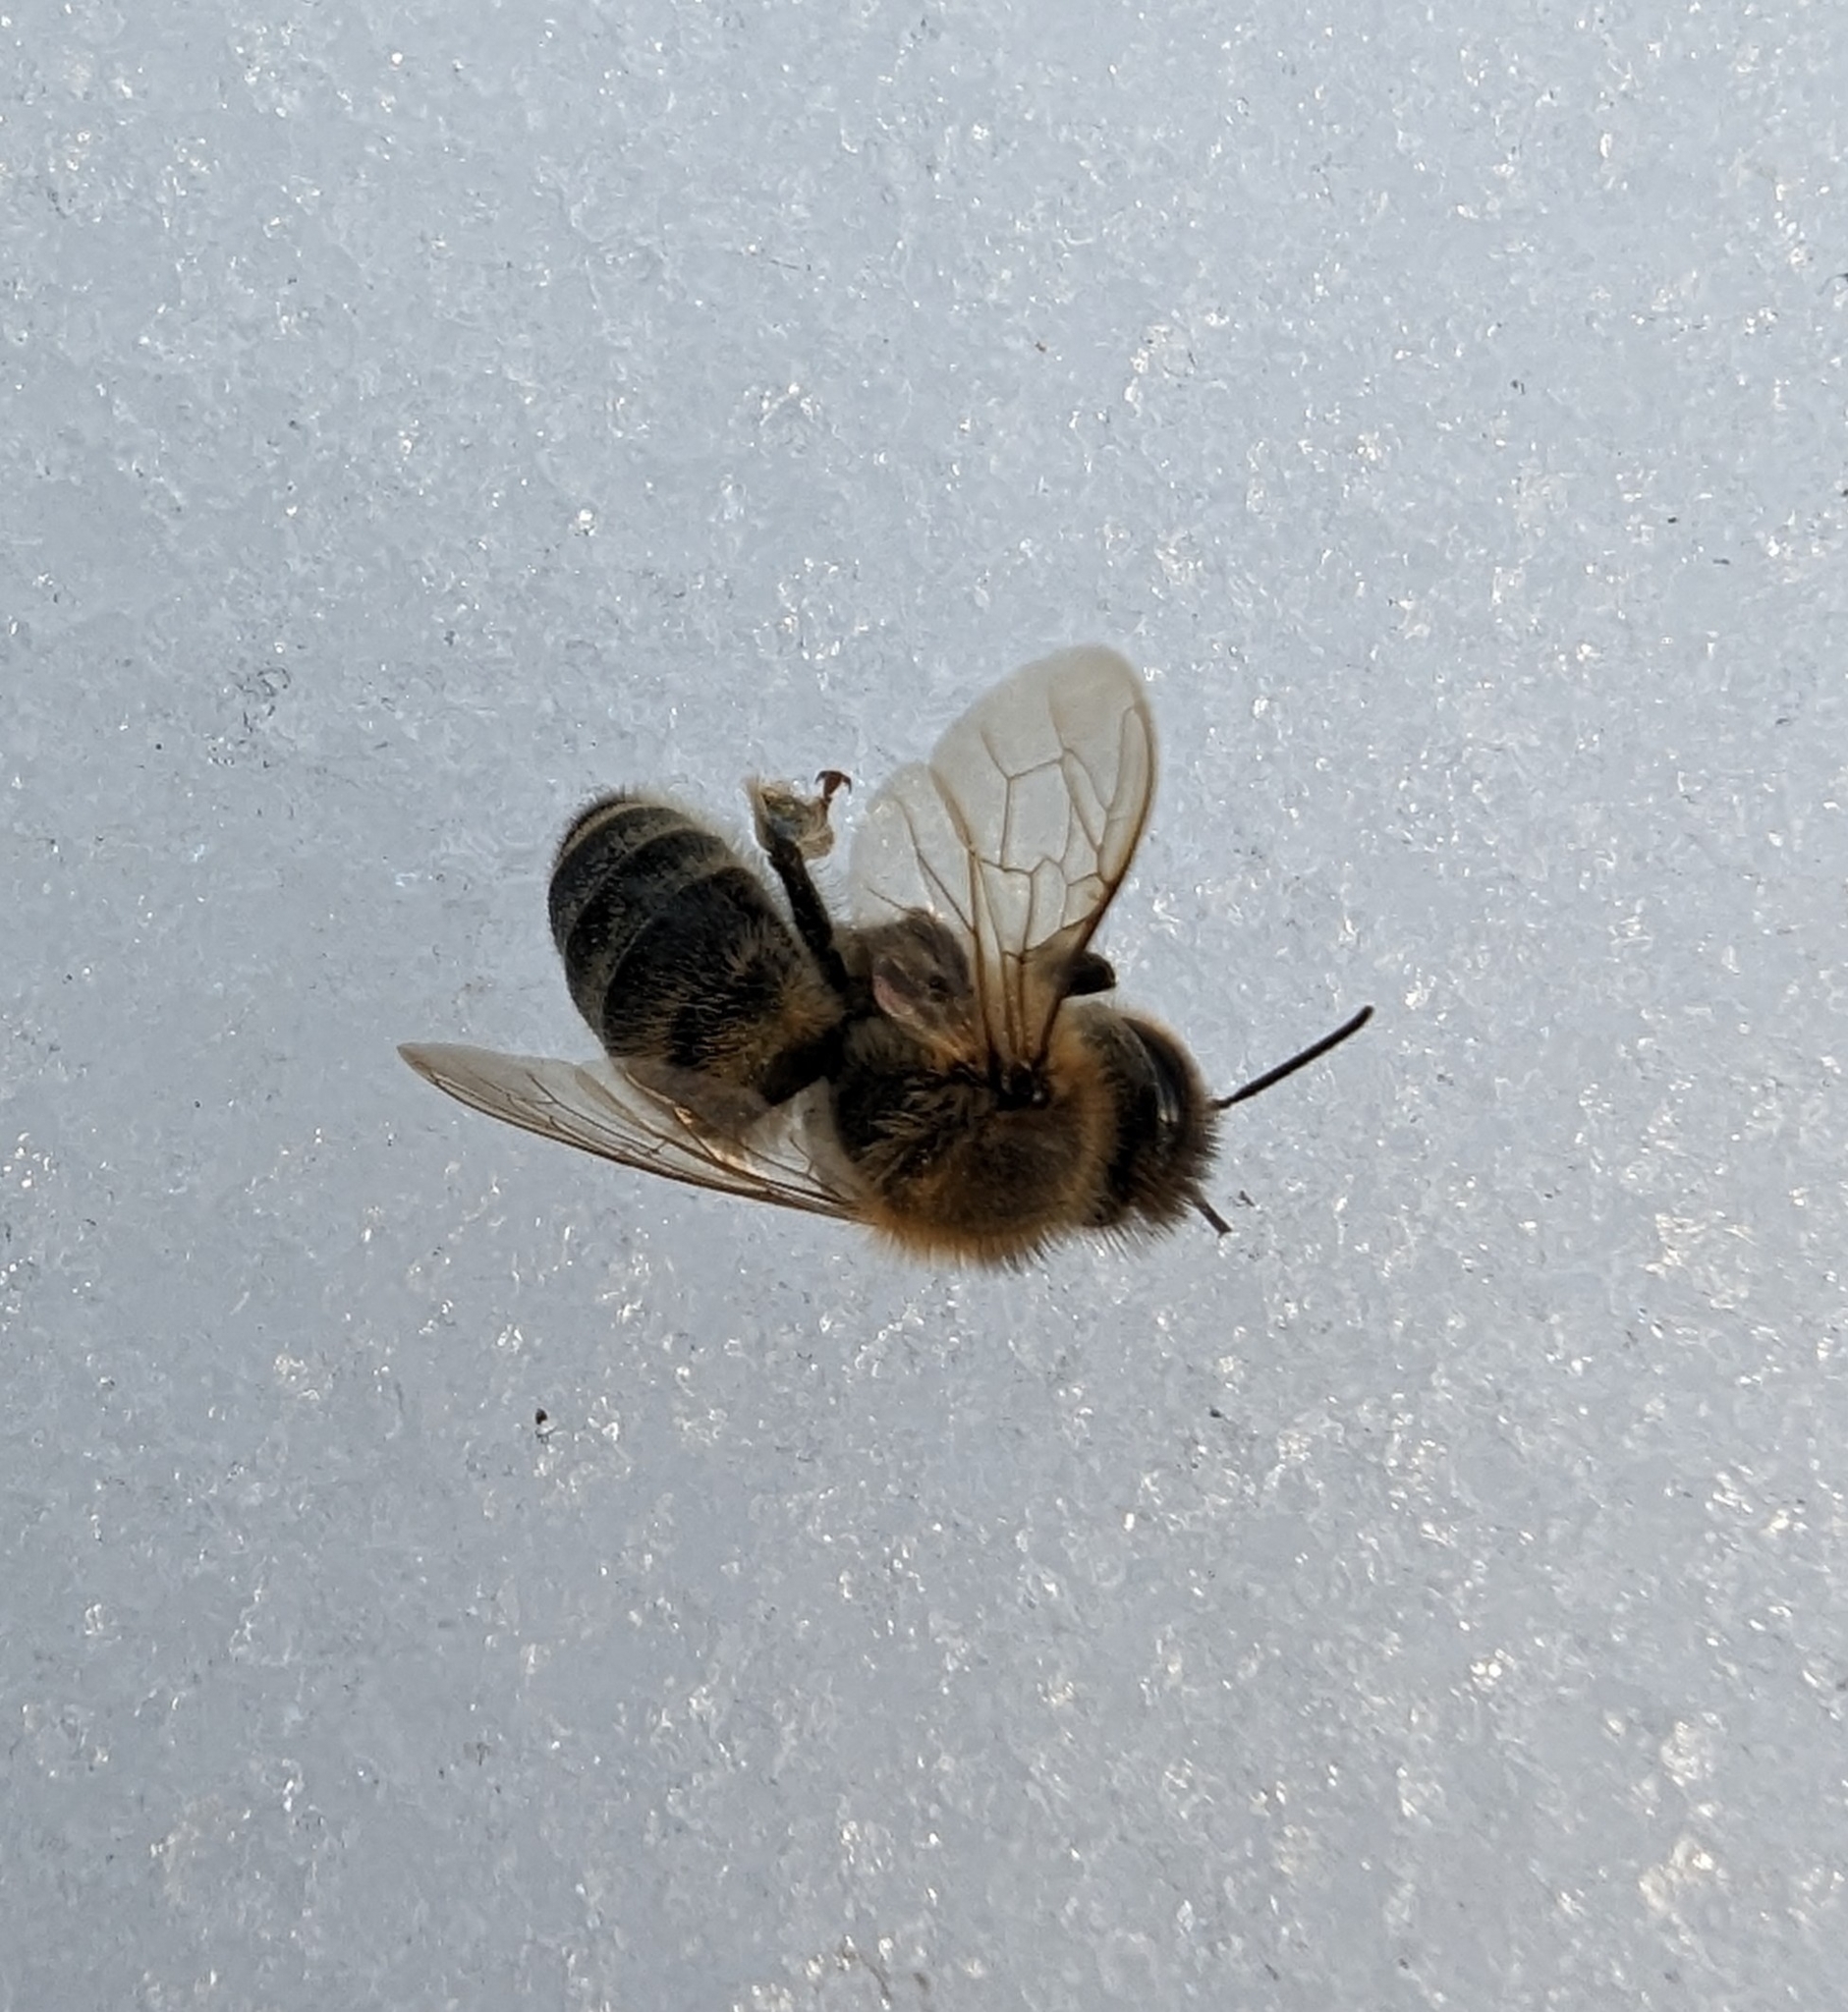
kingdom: Animalia
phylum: Arthropoda
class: Insecta
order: Hymenoptera
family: Apidae
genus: Apis
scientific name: Apis mellifera
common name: Honey bee
